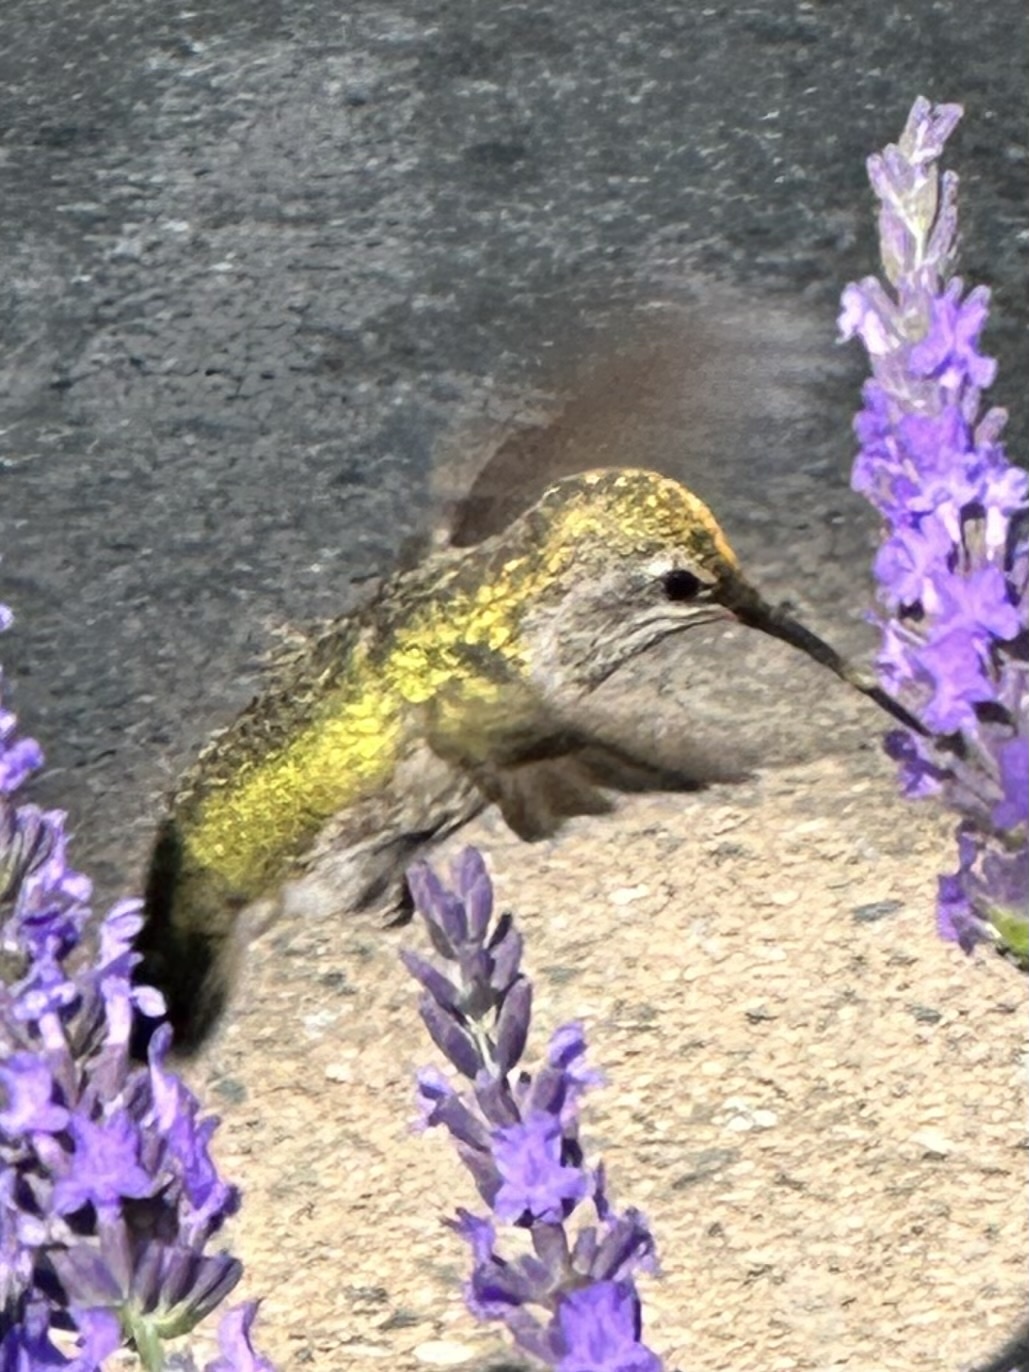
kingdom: Animalia
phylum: Chordata
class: Aves
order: Apodiformes
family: Trochilidae
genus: Calypte
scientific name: Calypte anna
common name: Anna's hummingbird
